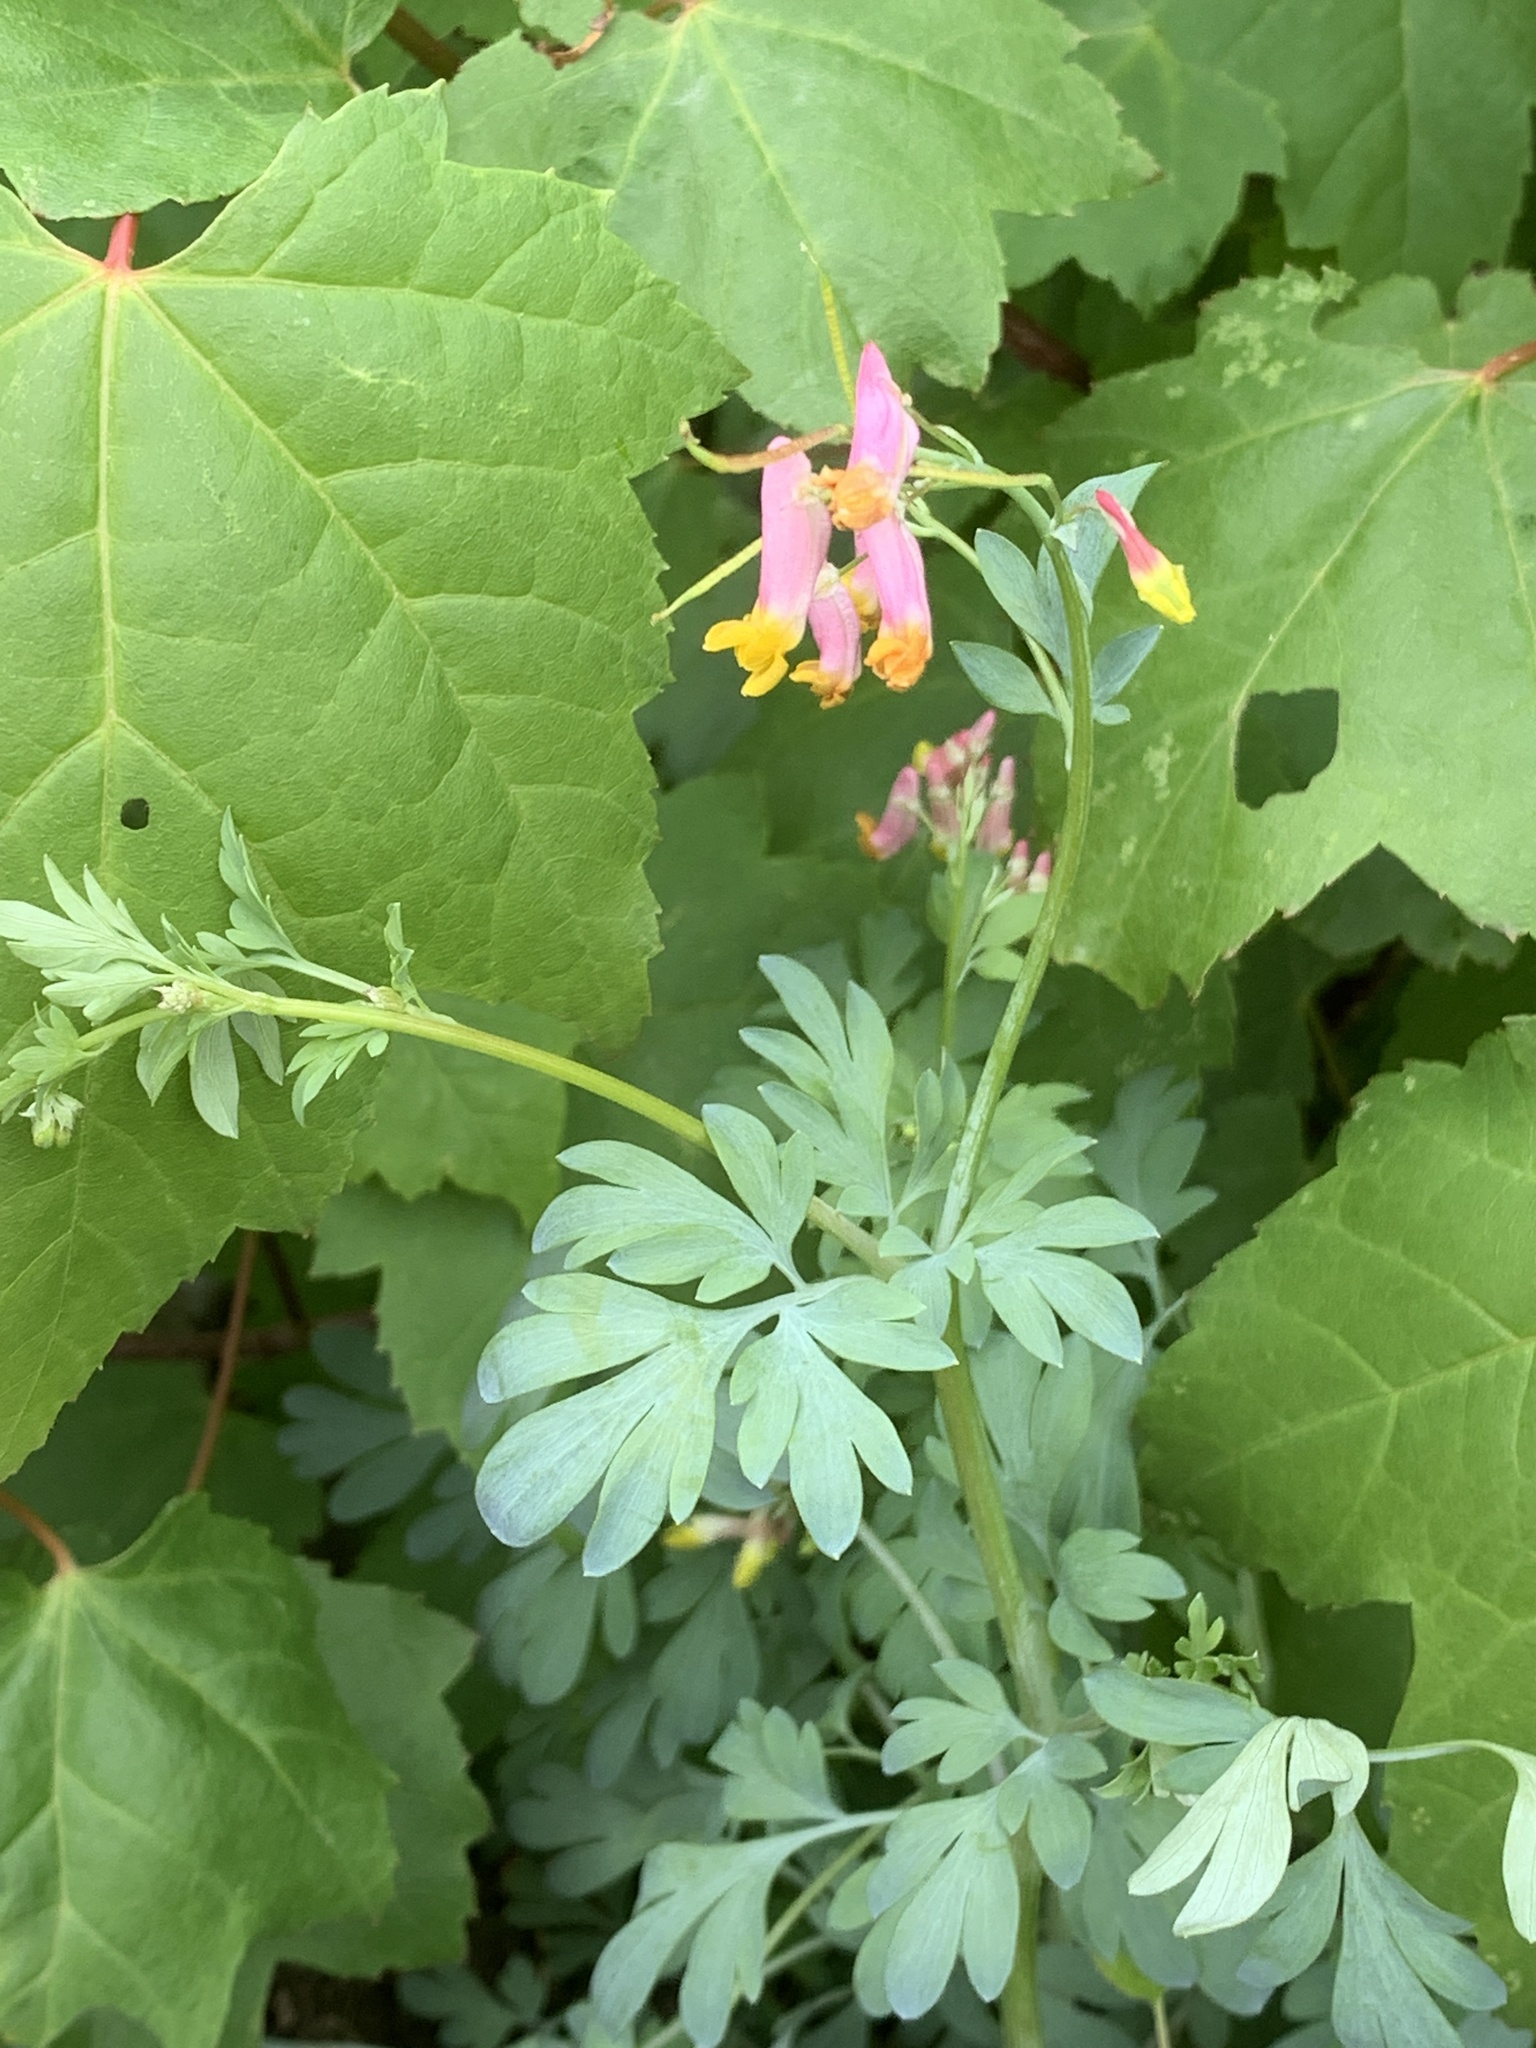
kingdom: Plantae
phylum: Tracheophyta
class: Magnoliopsida
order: Ranunculales
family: Papaveraceae
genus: Capnoides
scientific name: Capnoides sempervirens
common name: Rock harlequin
